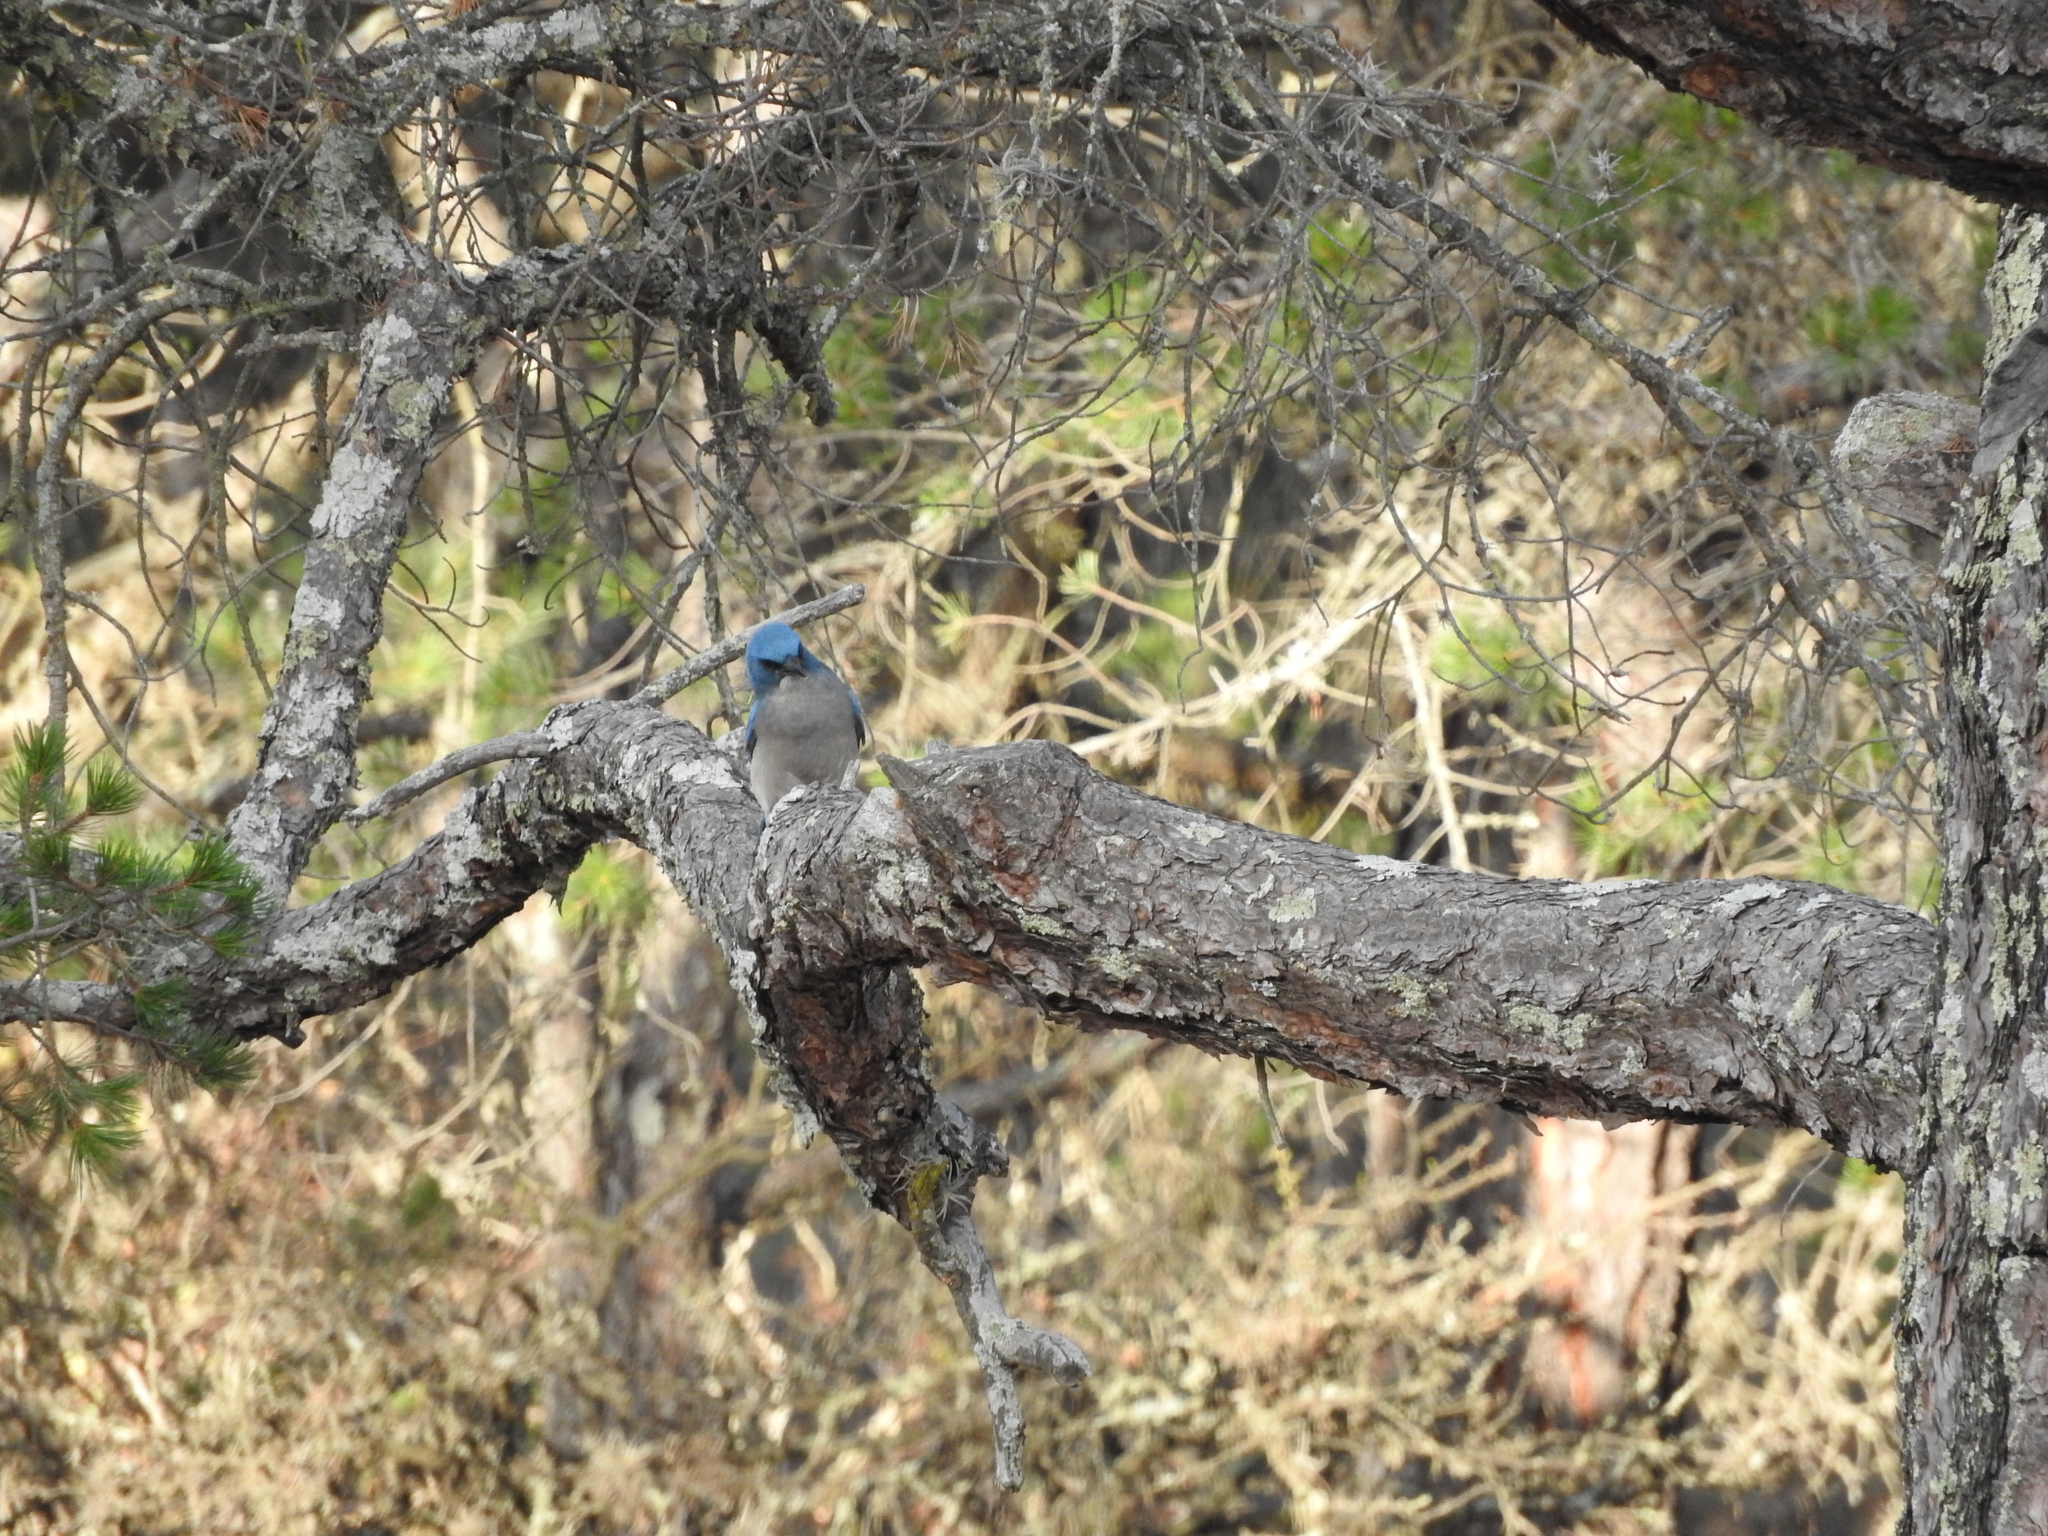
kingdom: Animalia
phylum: Chordata
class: Aves
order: Passeriformes
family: Corvidae
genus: Aphelocoma
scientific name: Aphelocoma wollweberi
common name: Mexican jay
